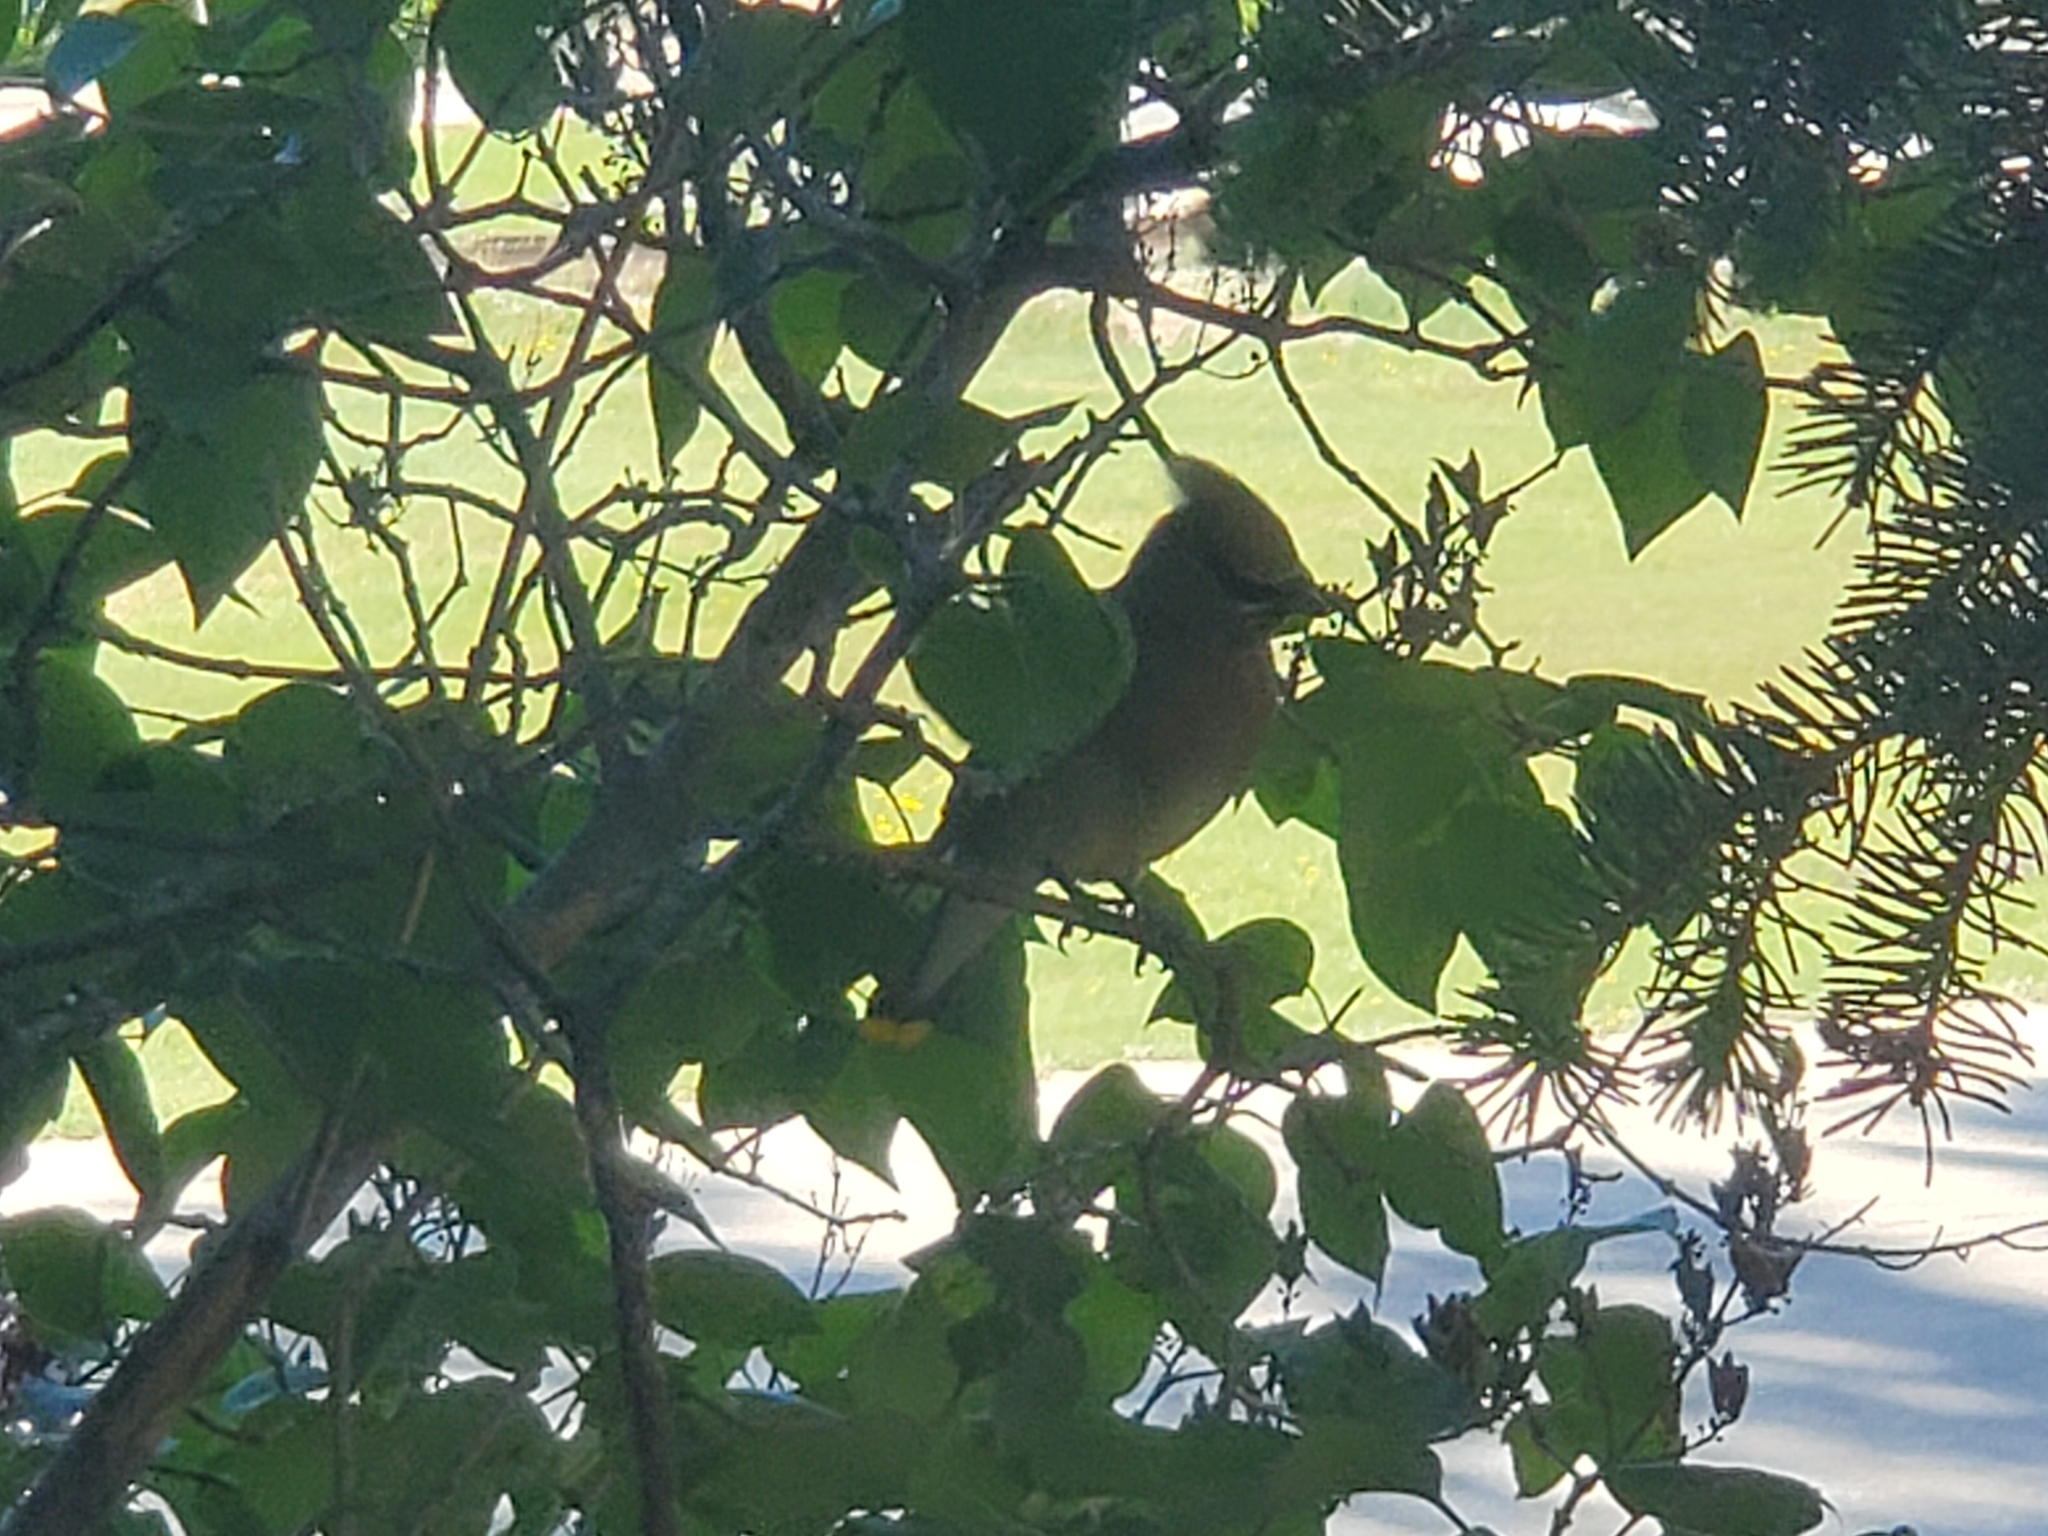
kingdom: Animalia
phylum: Chordata
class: Aves
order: Passeriformes
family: Bombycillidae
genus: Bombycilla
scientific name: Bombycilla cedrorum
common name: Cedar waxwing
